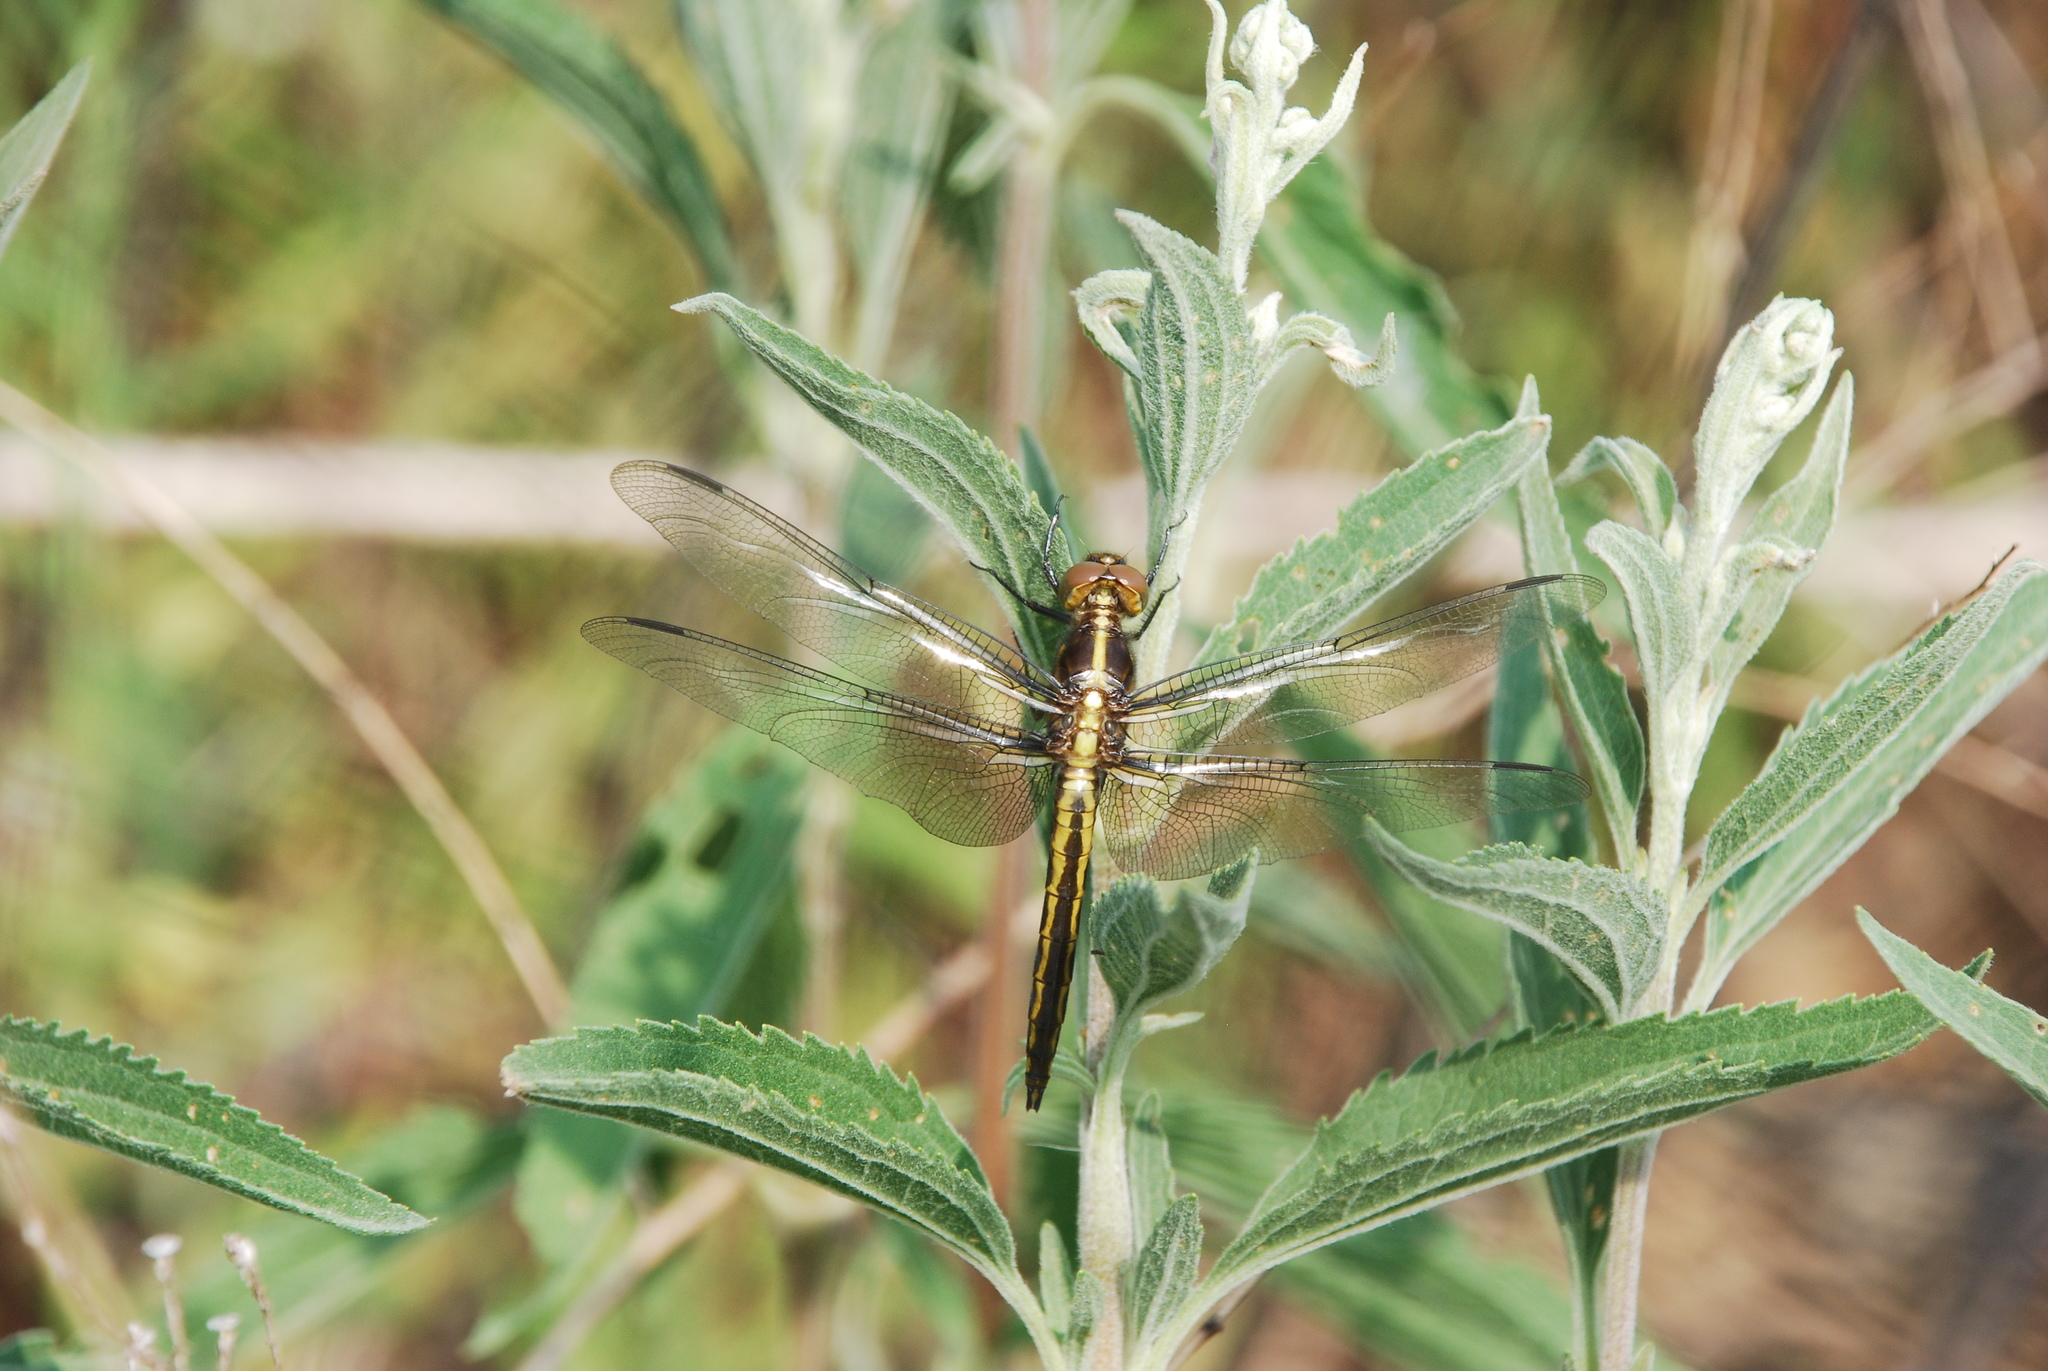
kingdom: Animalia
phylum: Arthropoda
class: Insecta
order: Odonata
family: Libellulidae
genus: Libellula
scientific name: Libellula luctuosa
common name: Widow skimmer
